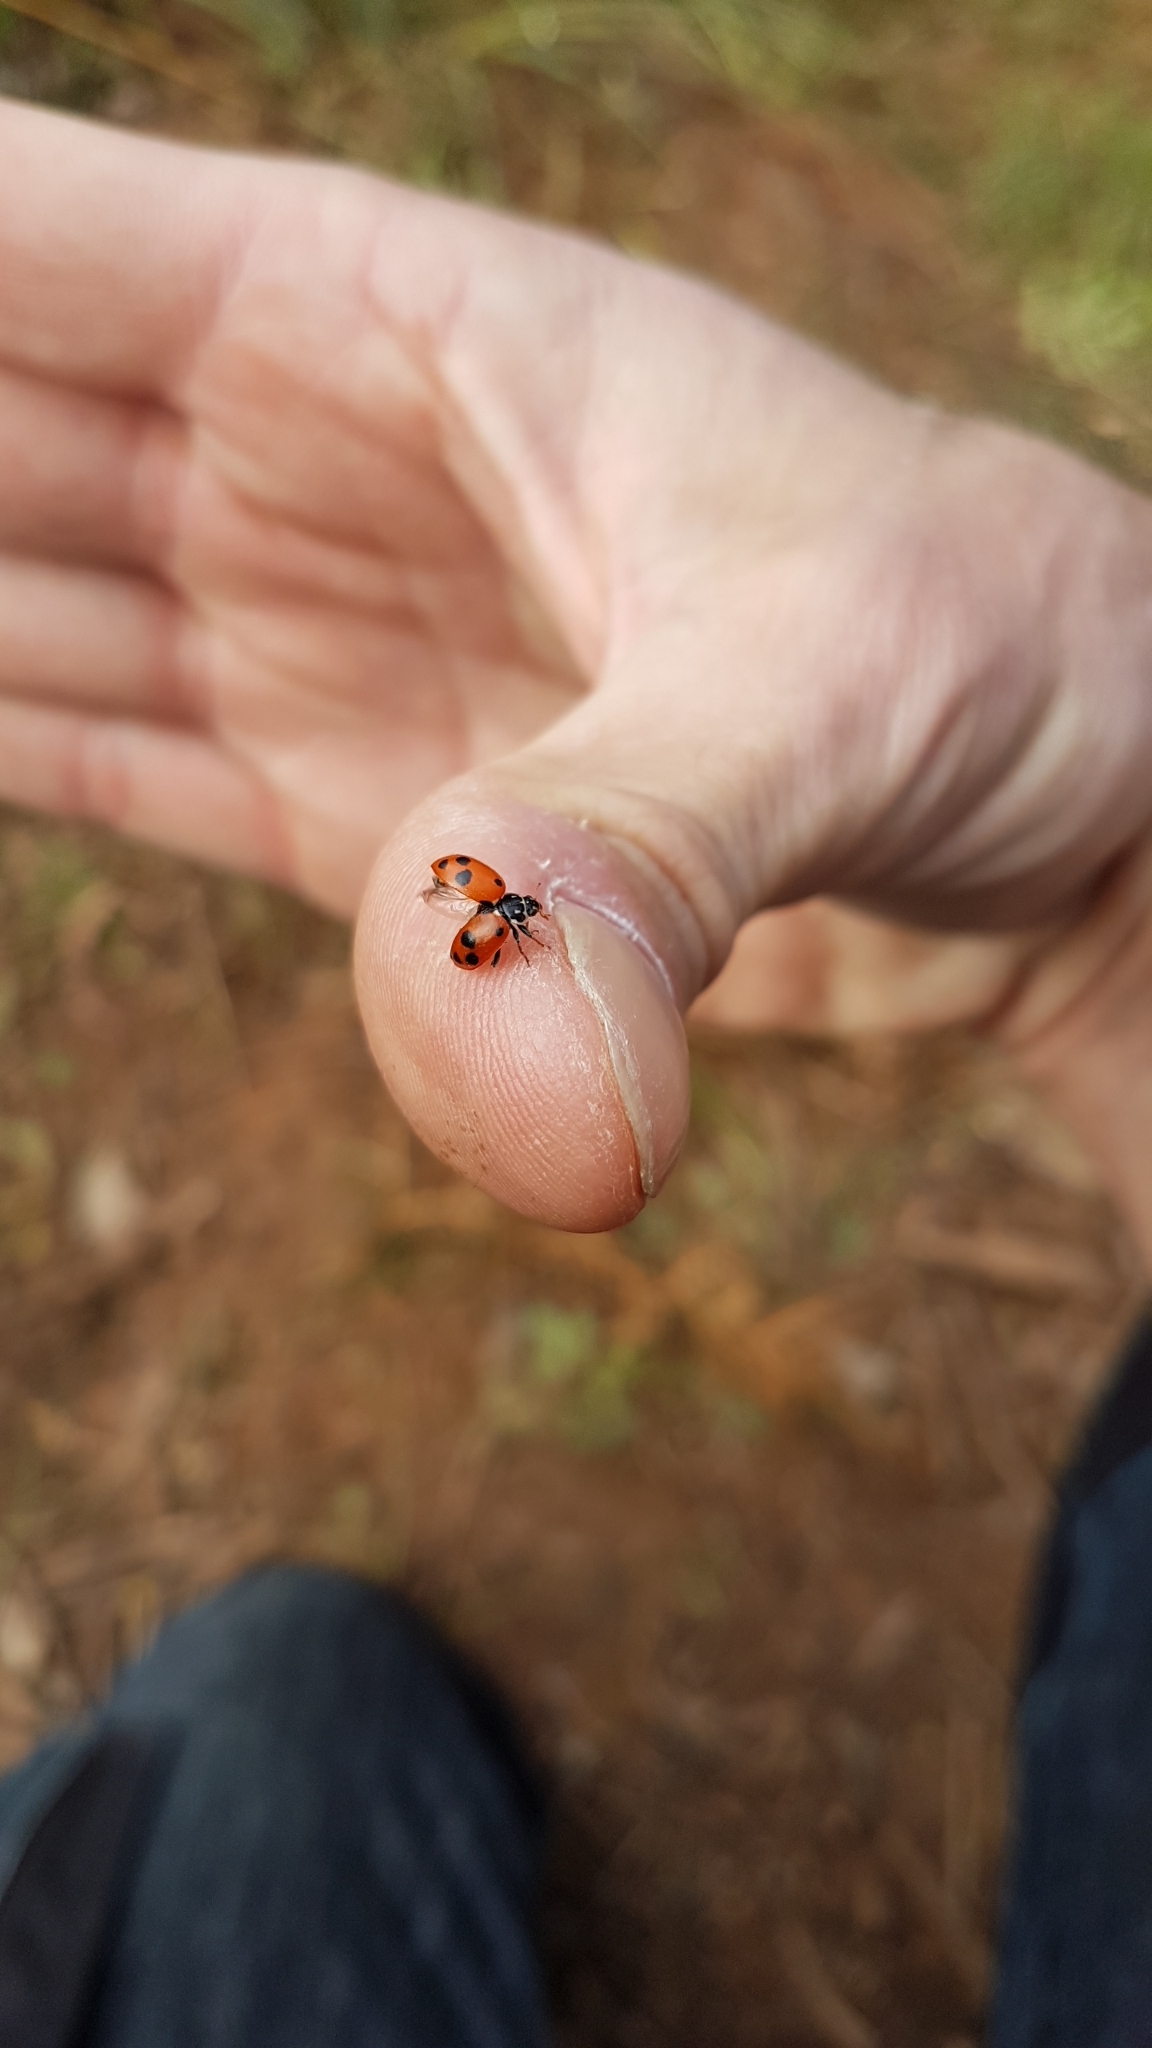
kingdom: Animalia
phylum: Arthropoda
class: Insecta
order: Coleoptera
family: Coccinellidae
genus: Hippodamia
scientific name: Hippodamia variegata
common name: Ladybird beetle
